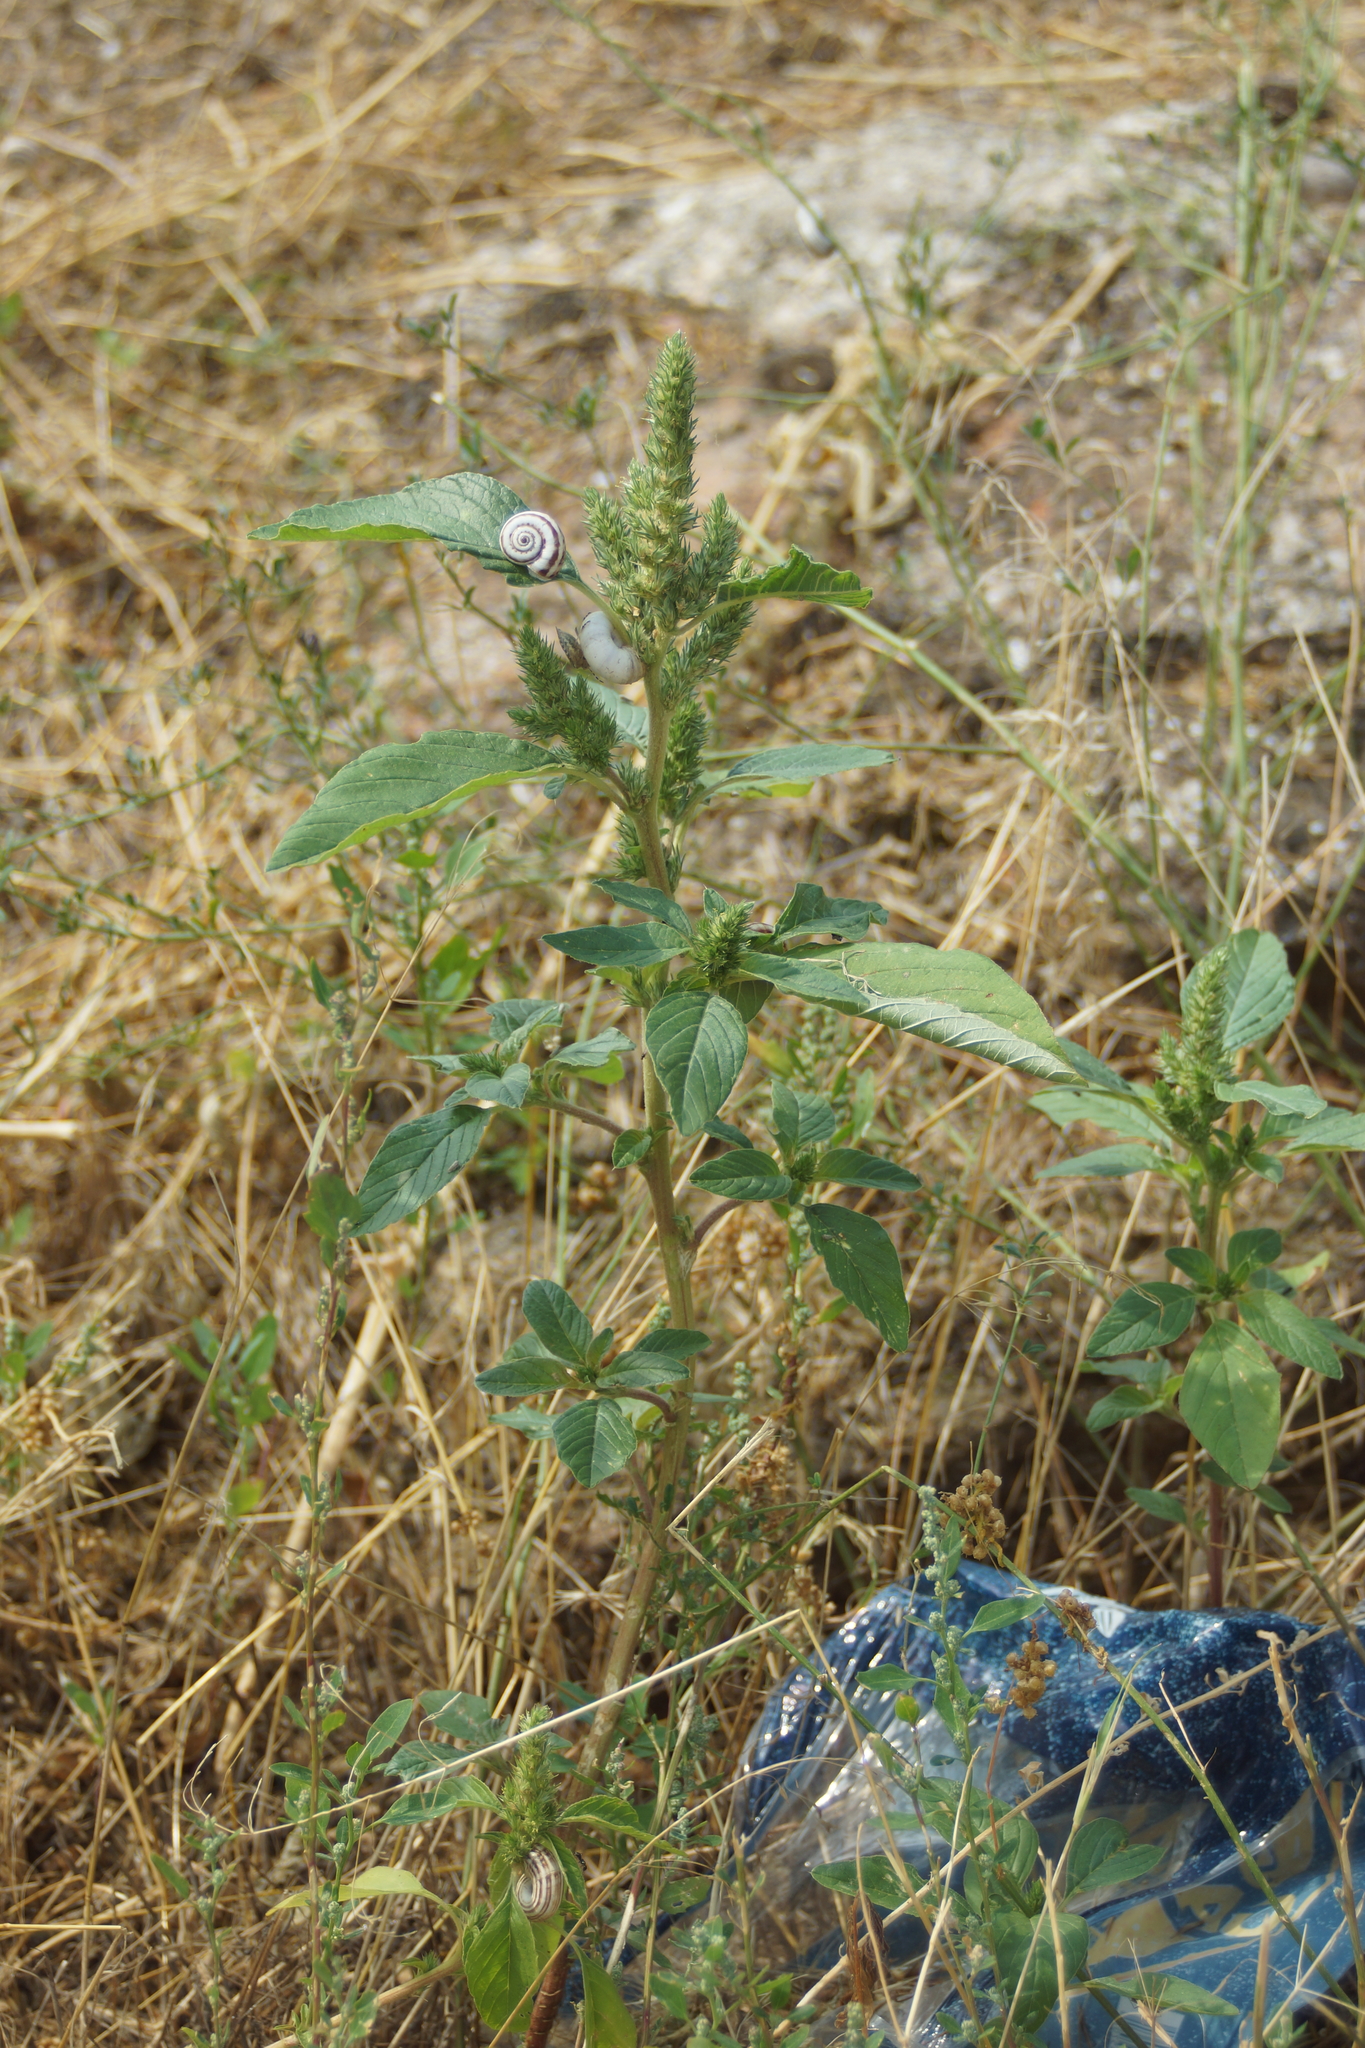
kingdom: Plantae
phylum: Tracheophyta
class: Magnoliopsida
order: Caryophyllales
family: Amaranthaceae
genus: Amaranthus
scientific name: Amaranthus retroflexus
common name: Redroot amaranth
